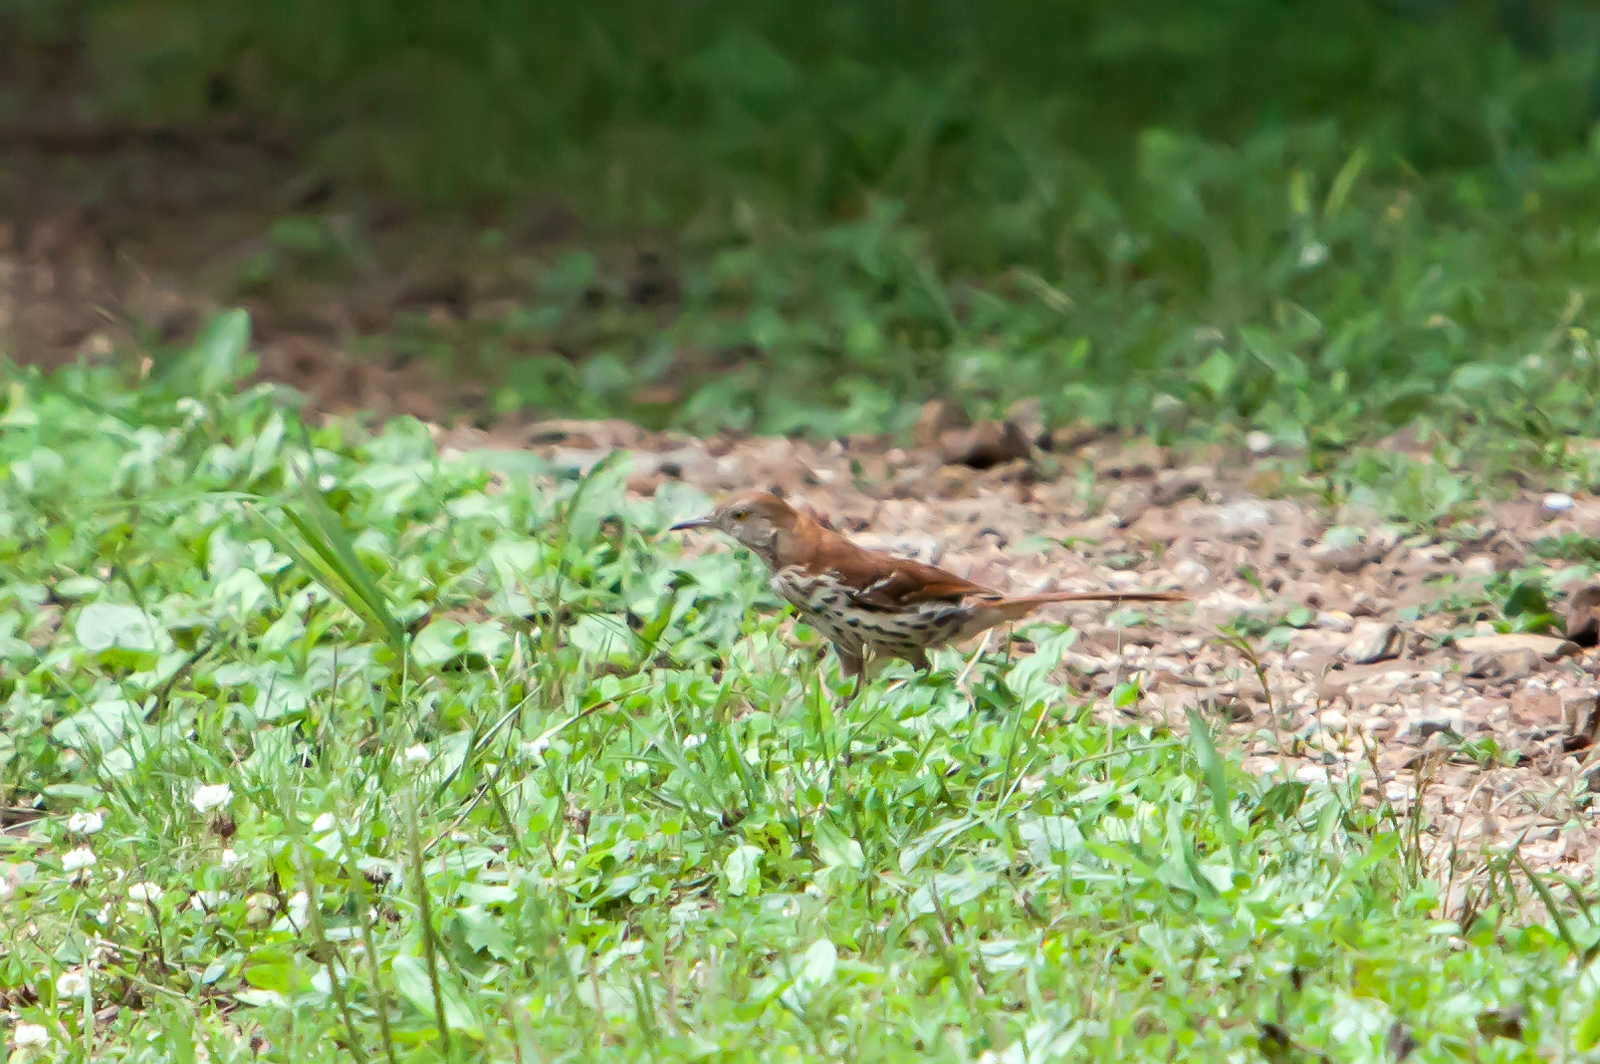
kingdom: Animalia
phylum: Chordata
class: Aves
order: Passeriformes
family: Mimidae
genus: Toxostoma
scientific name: Toxostoma rufum
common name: Brown thrasher
